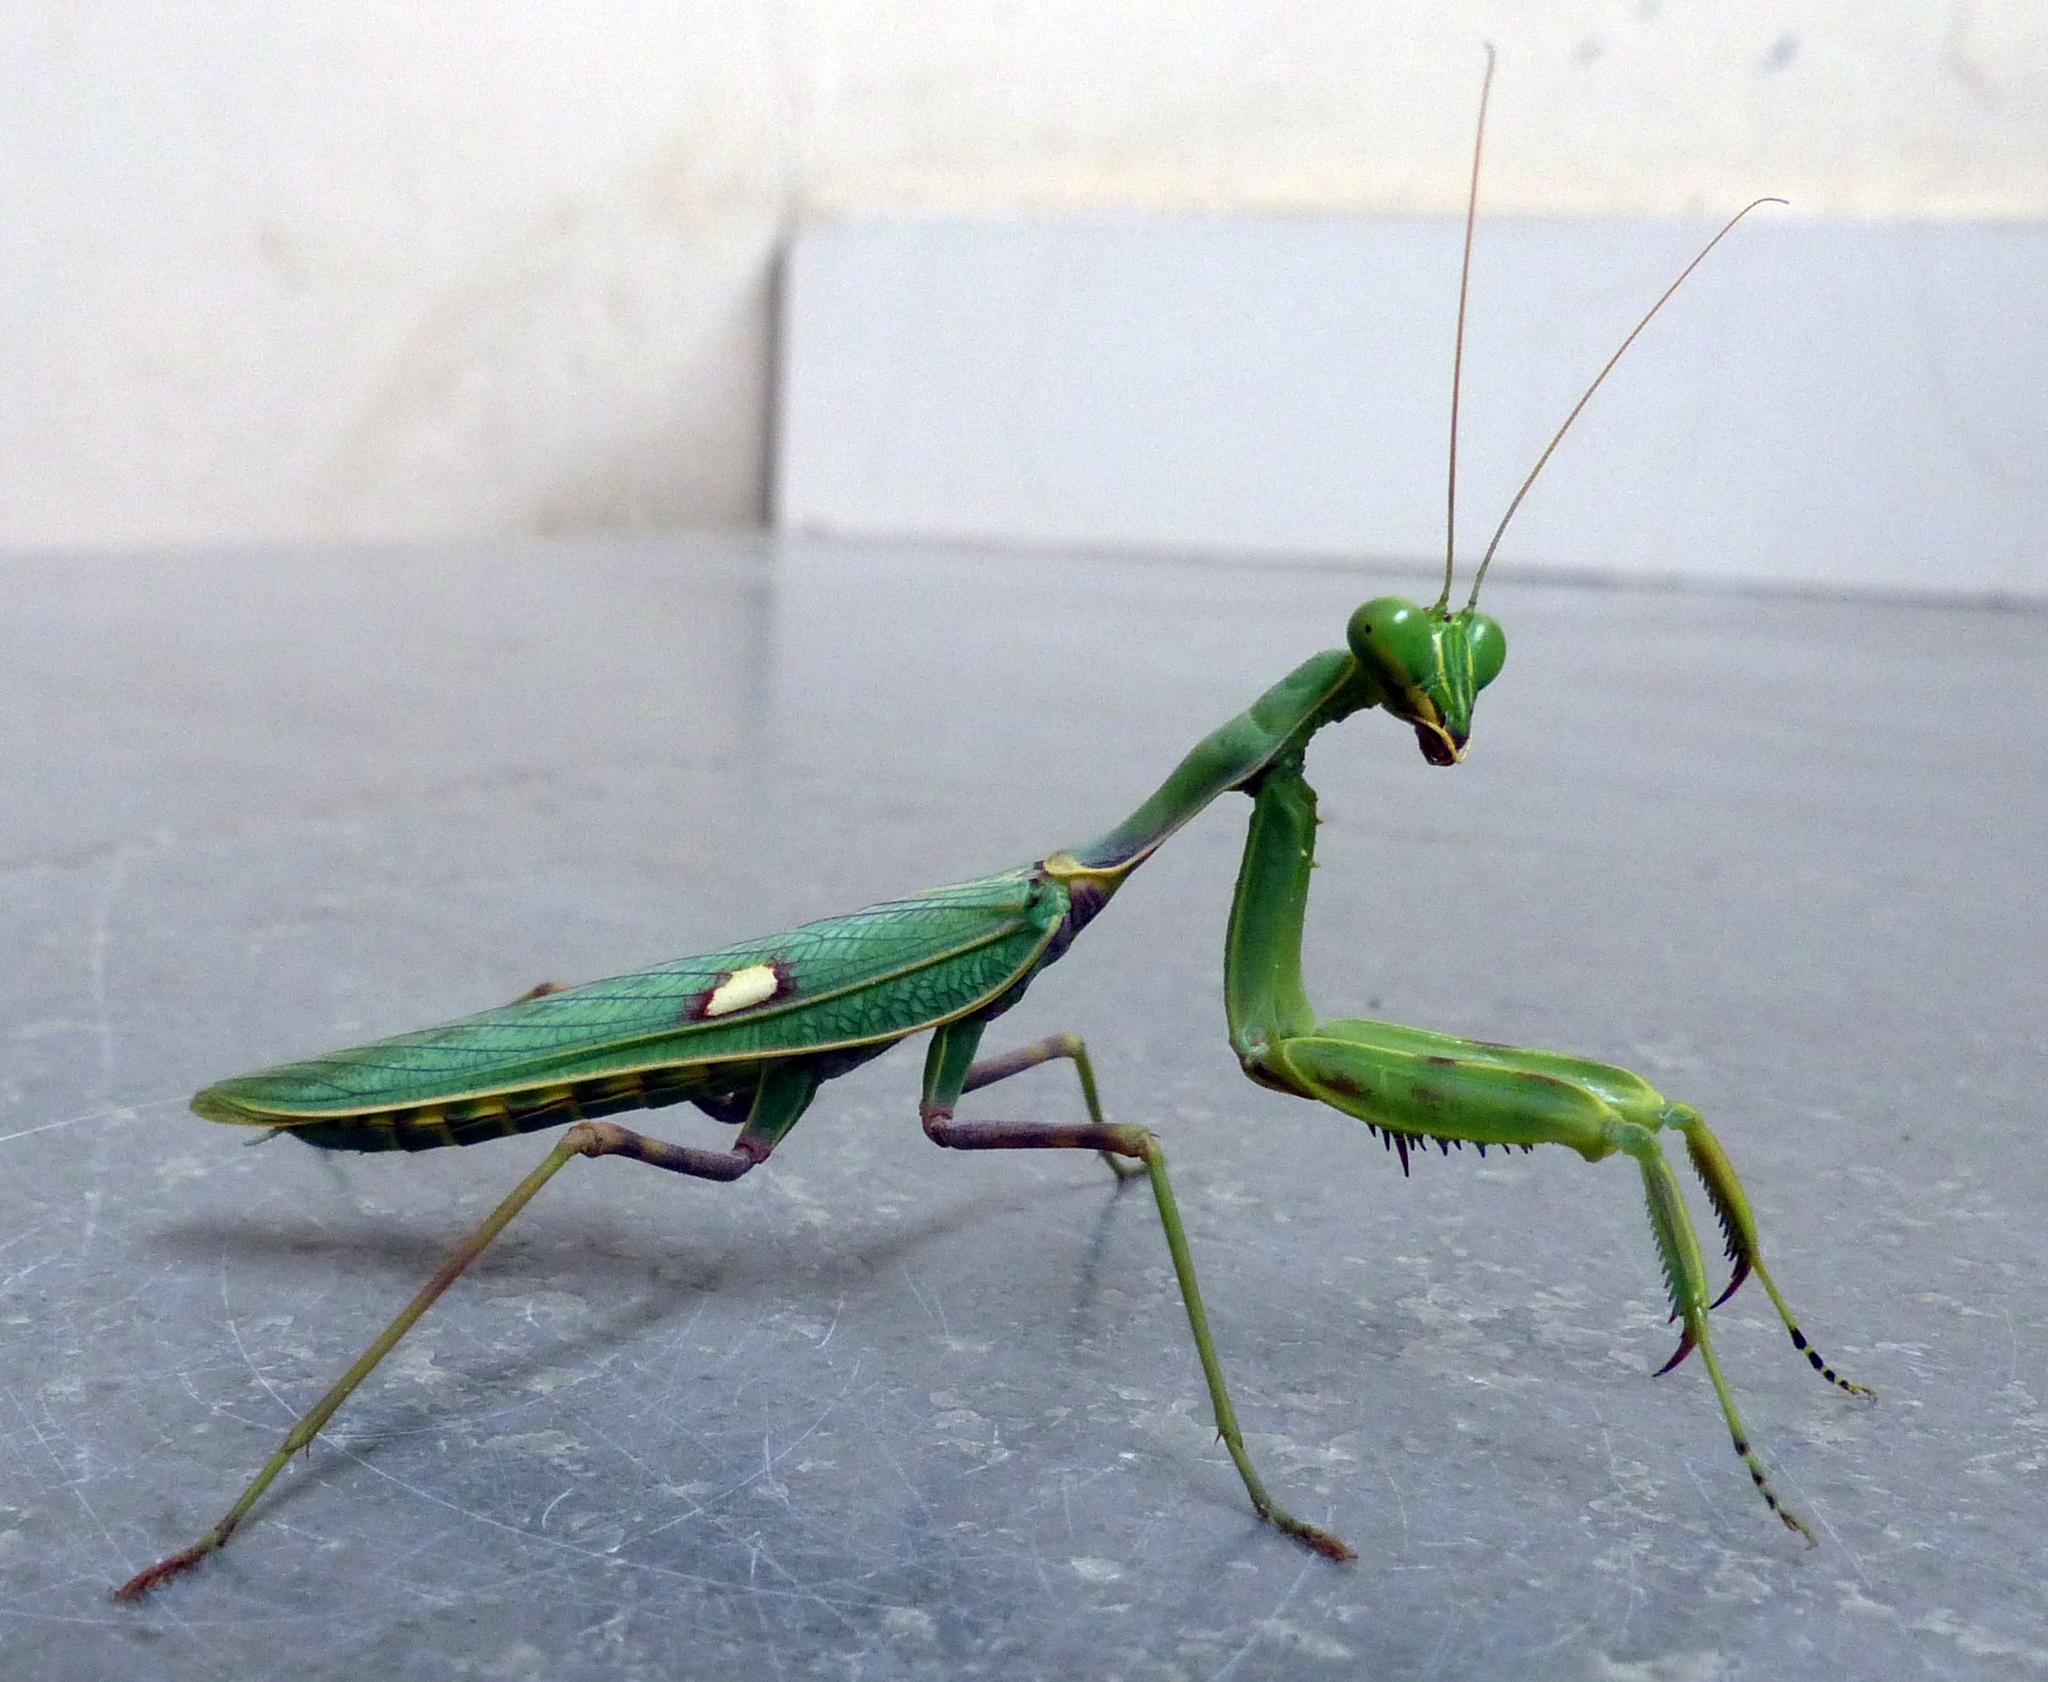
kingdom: Animalia
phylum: Arthropoda
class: Insecta
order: Mantodea
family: Mantidae
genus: Hierodula
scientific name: Hierodula coarctata
